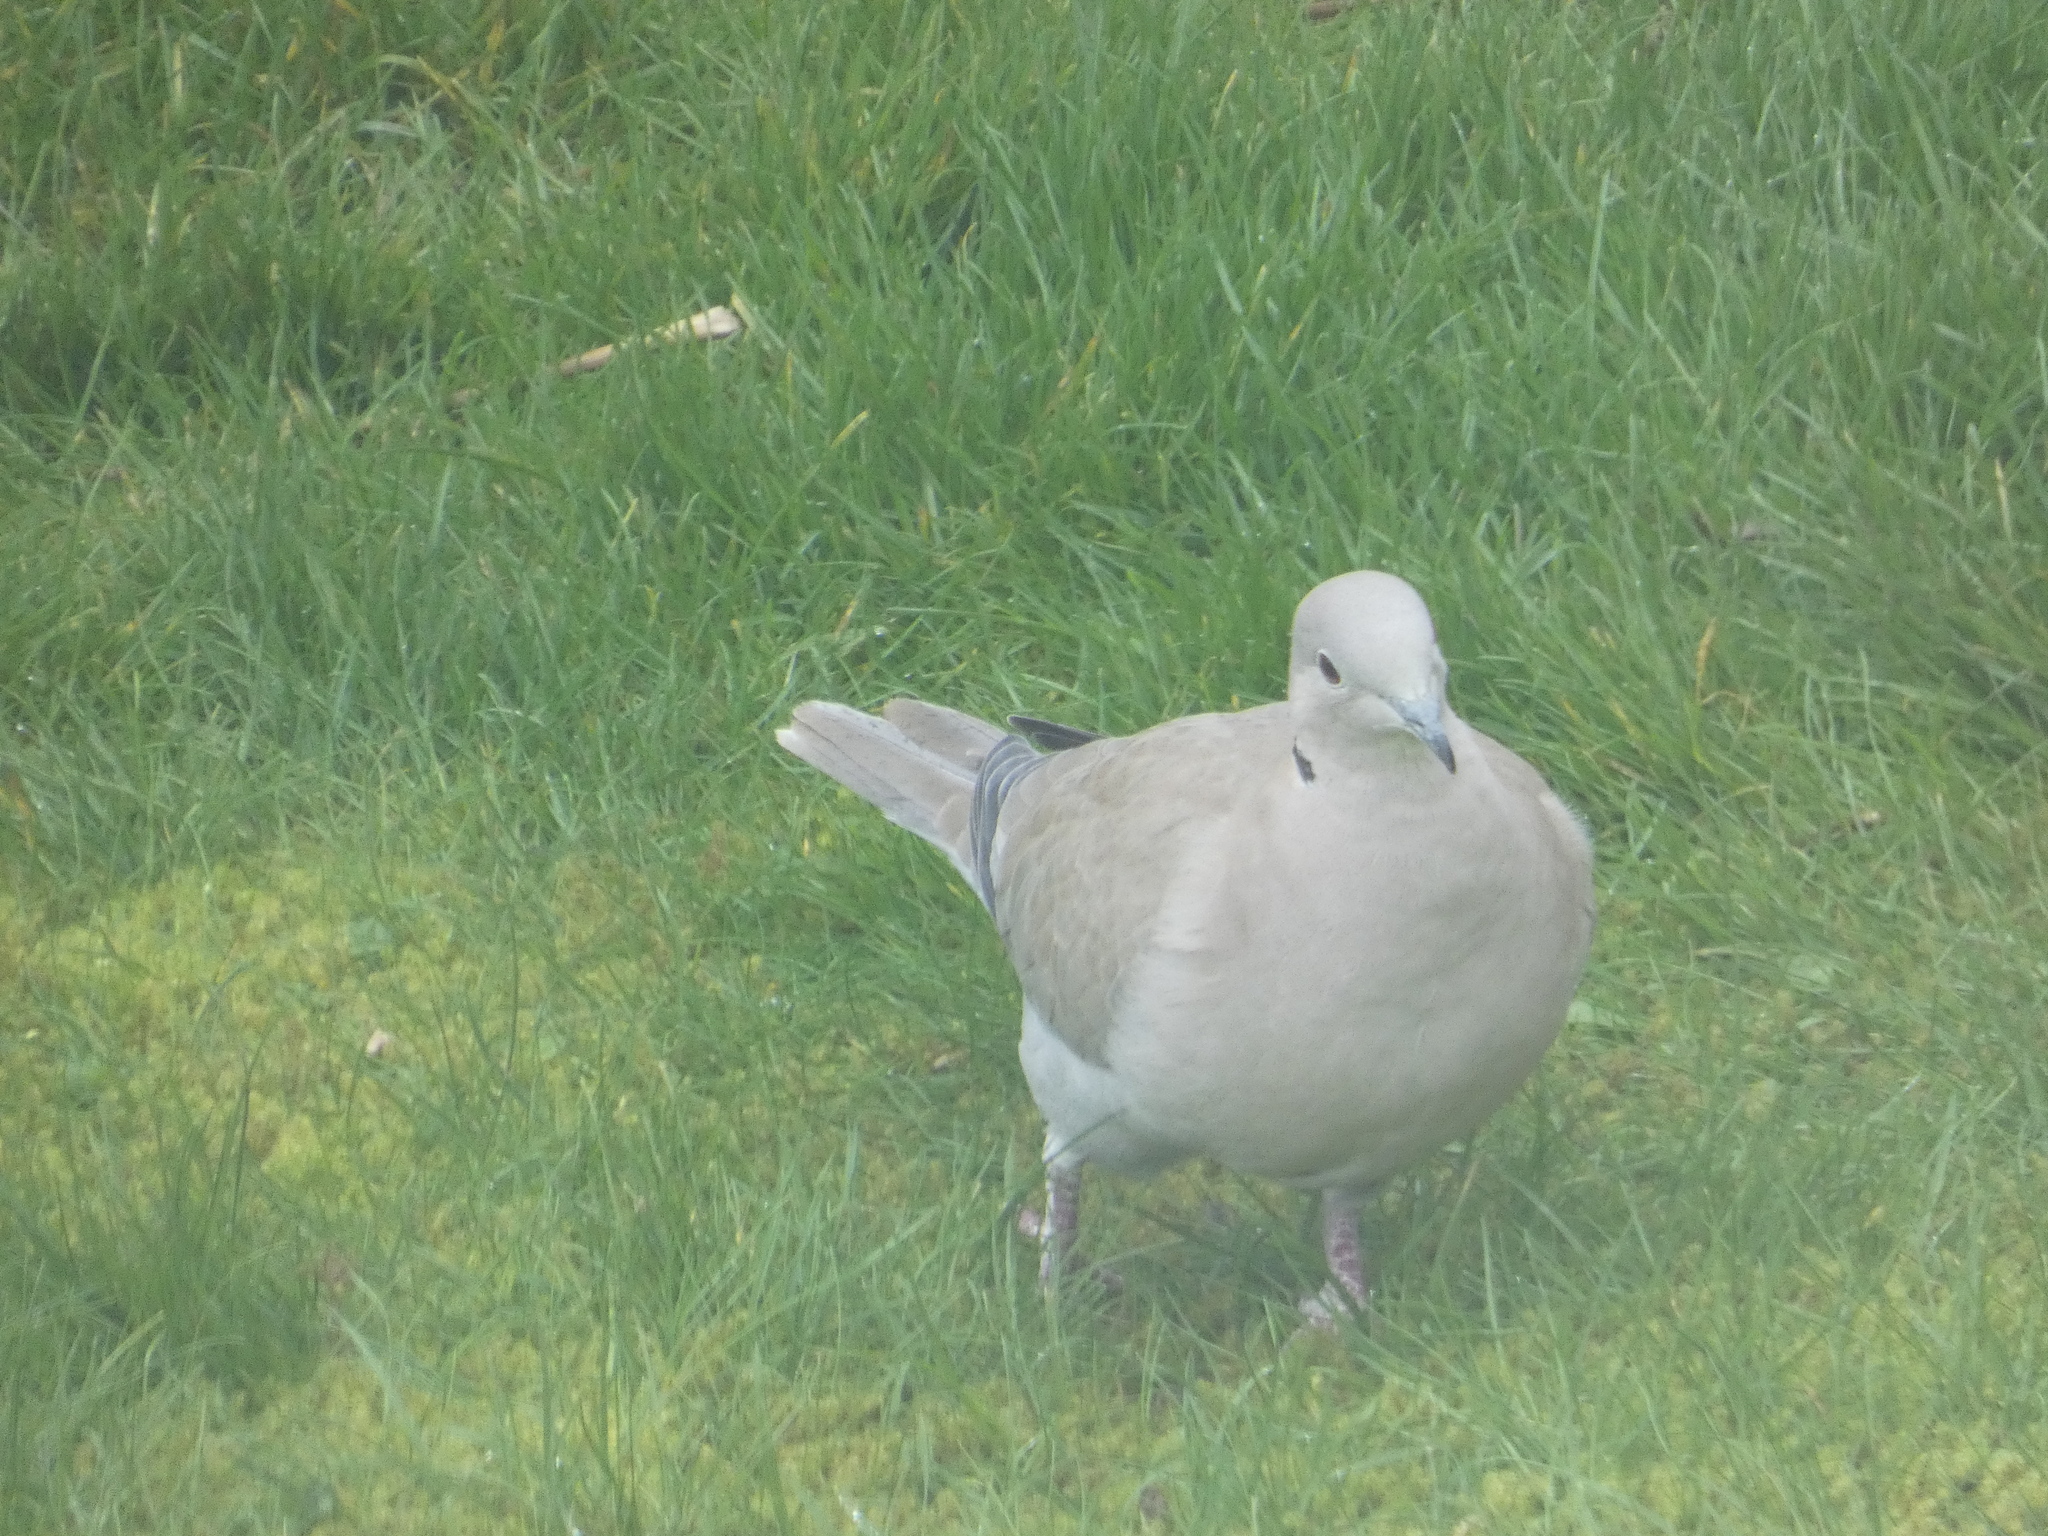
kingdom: Animalia
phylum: Chordata
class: Aves
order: Columbiformes
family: Columbidae
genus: Streptopelia
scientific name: Streptopelia decaocto
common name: Eurasian collared dove
